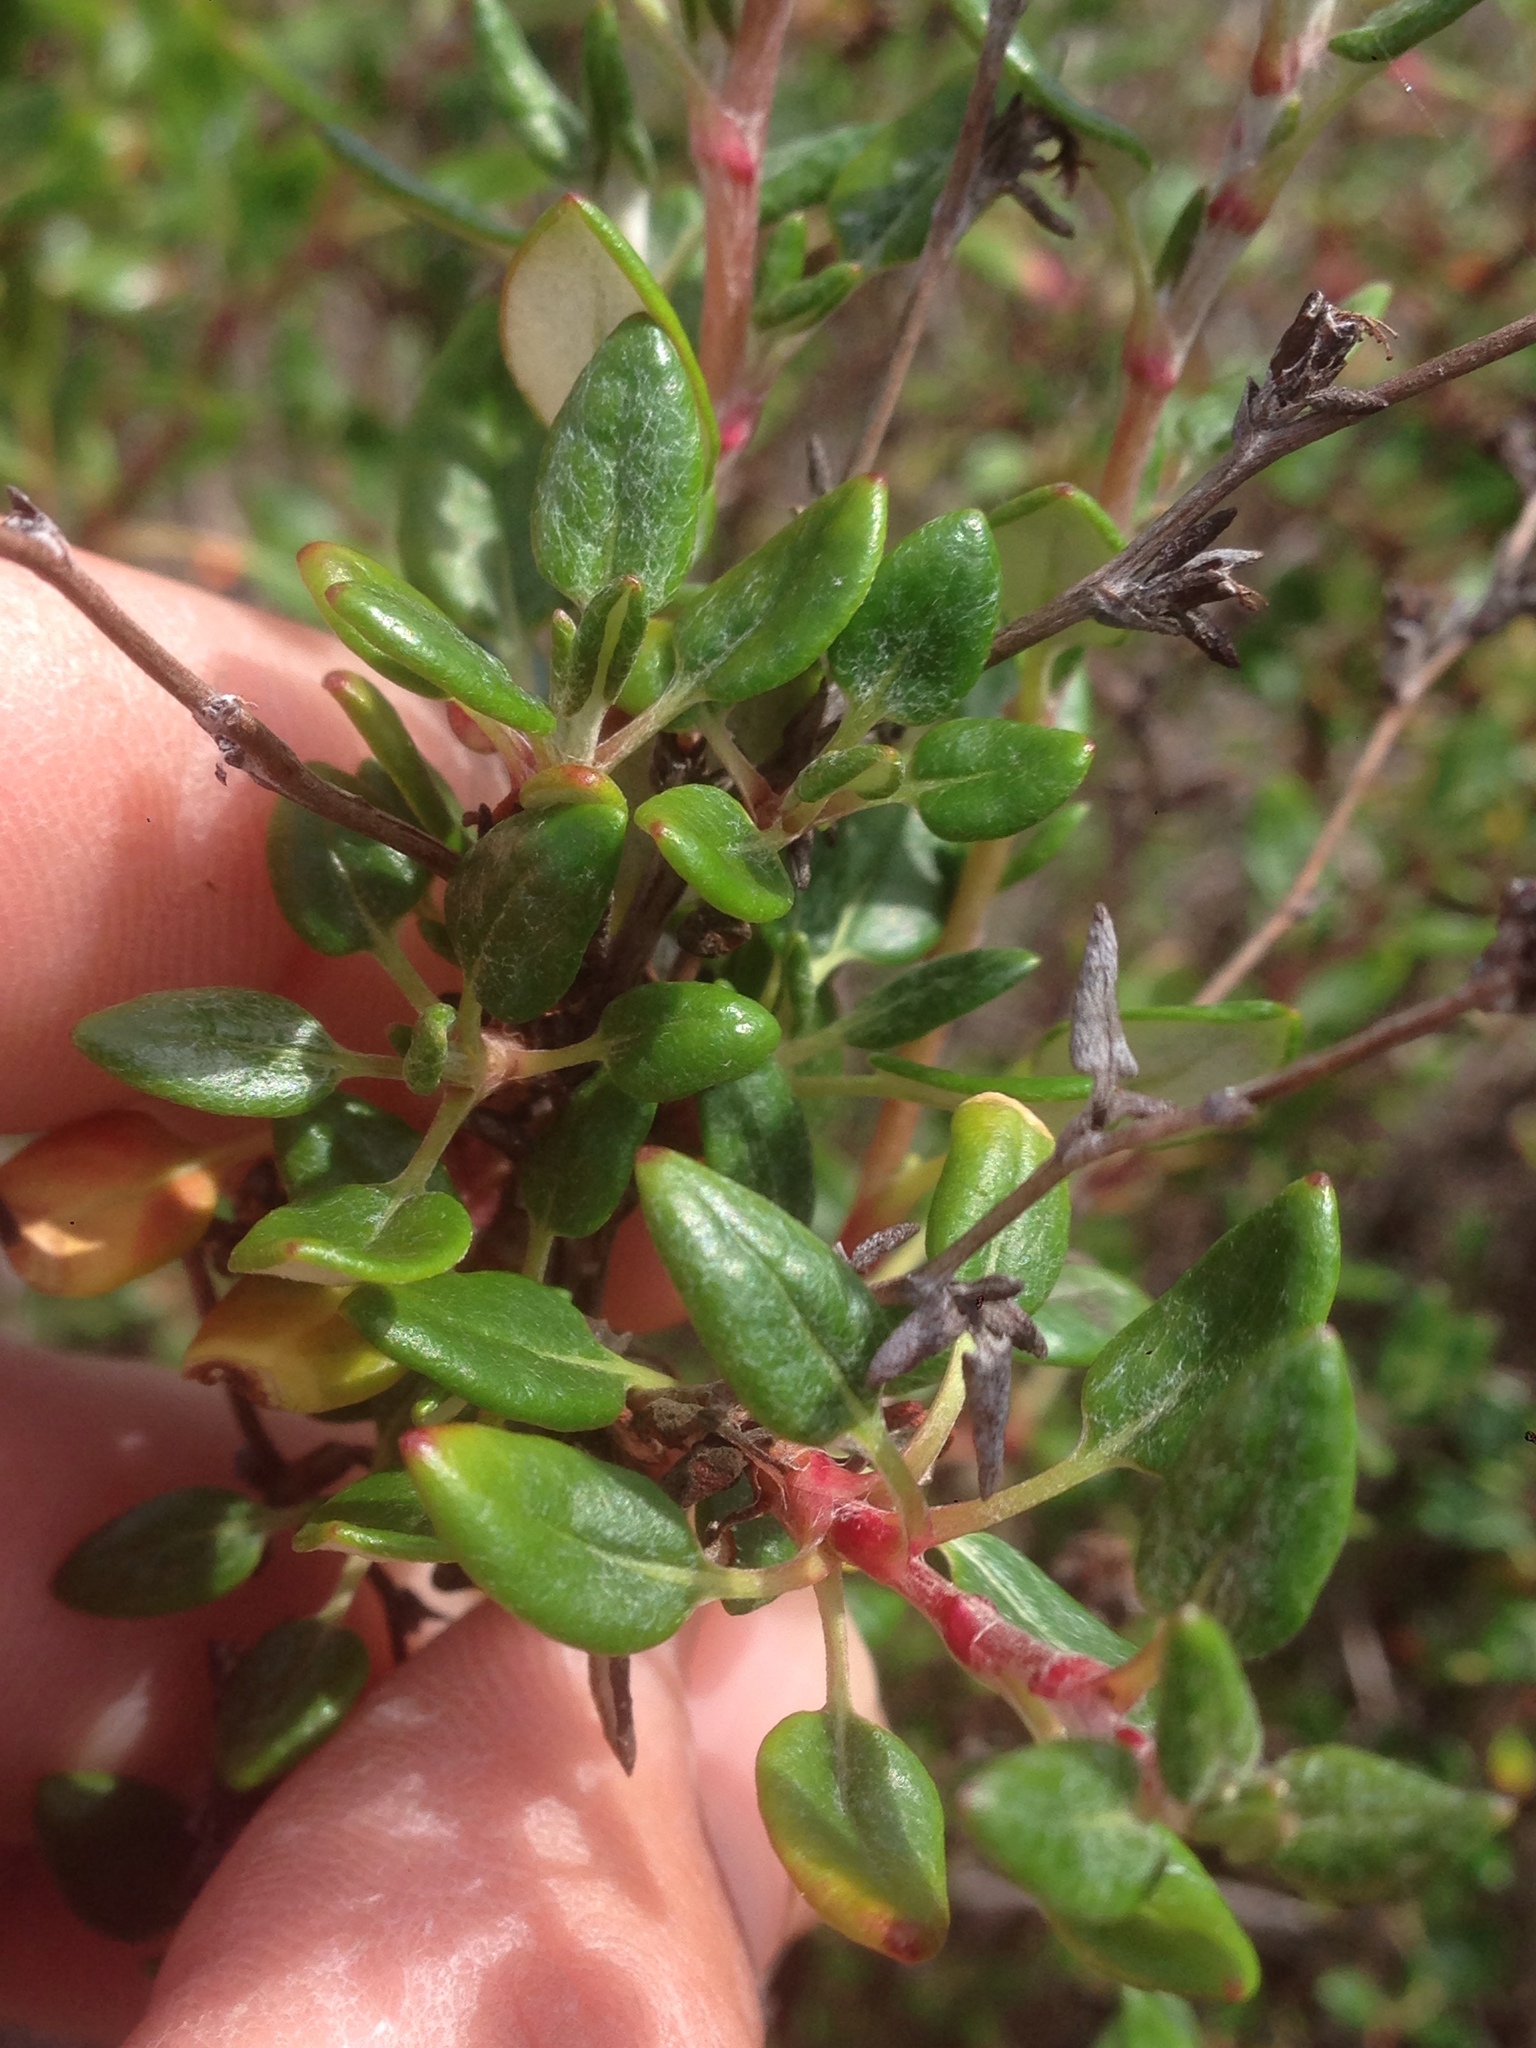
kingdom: Plantae
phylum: Tracheophyta
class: Magnoliopsida
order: Caryophyllales
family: Polygonaceae
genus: Eriogonum
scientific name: Eriogonum parvifolium
